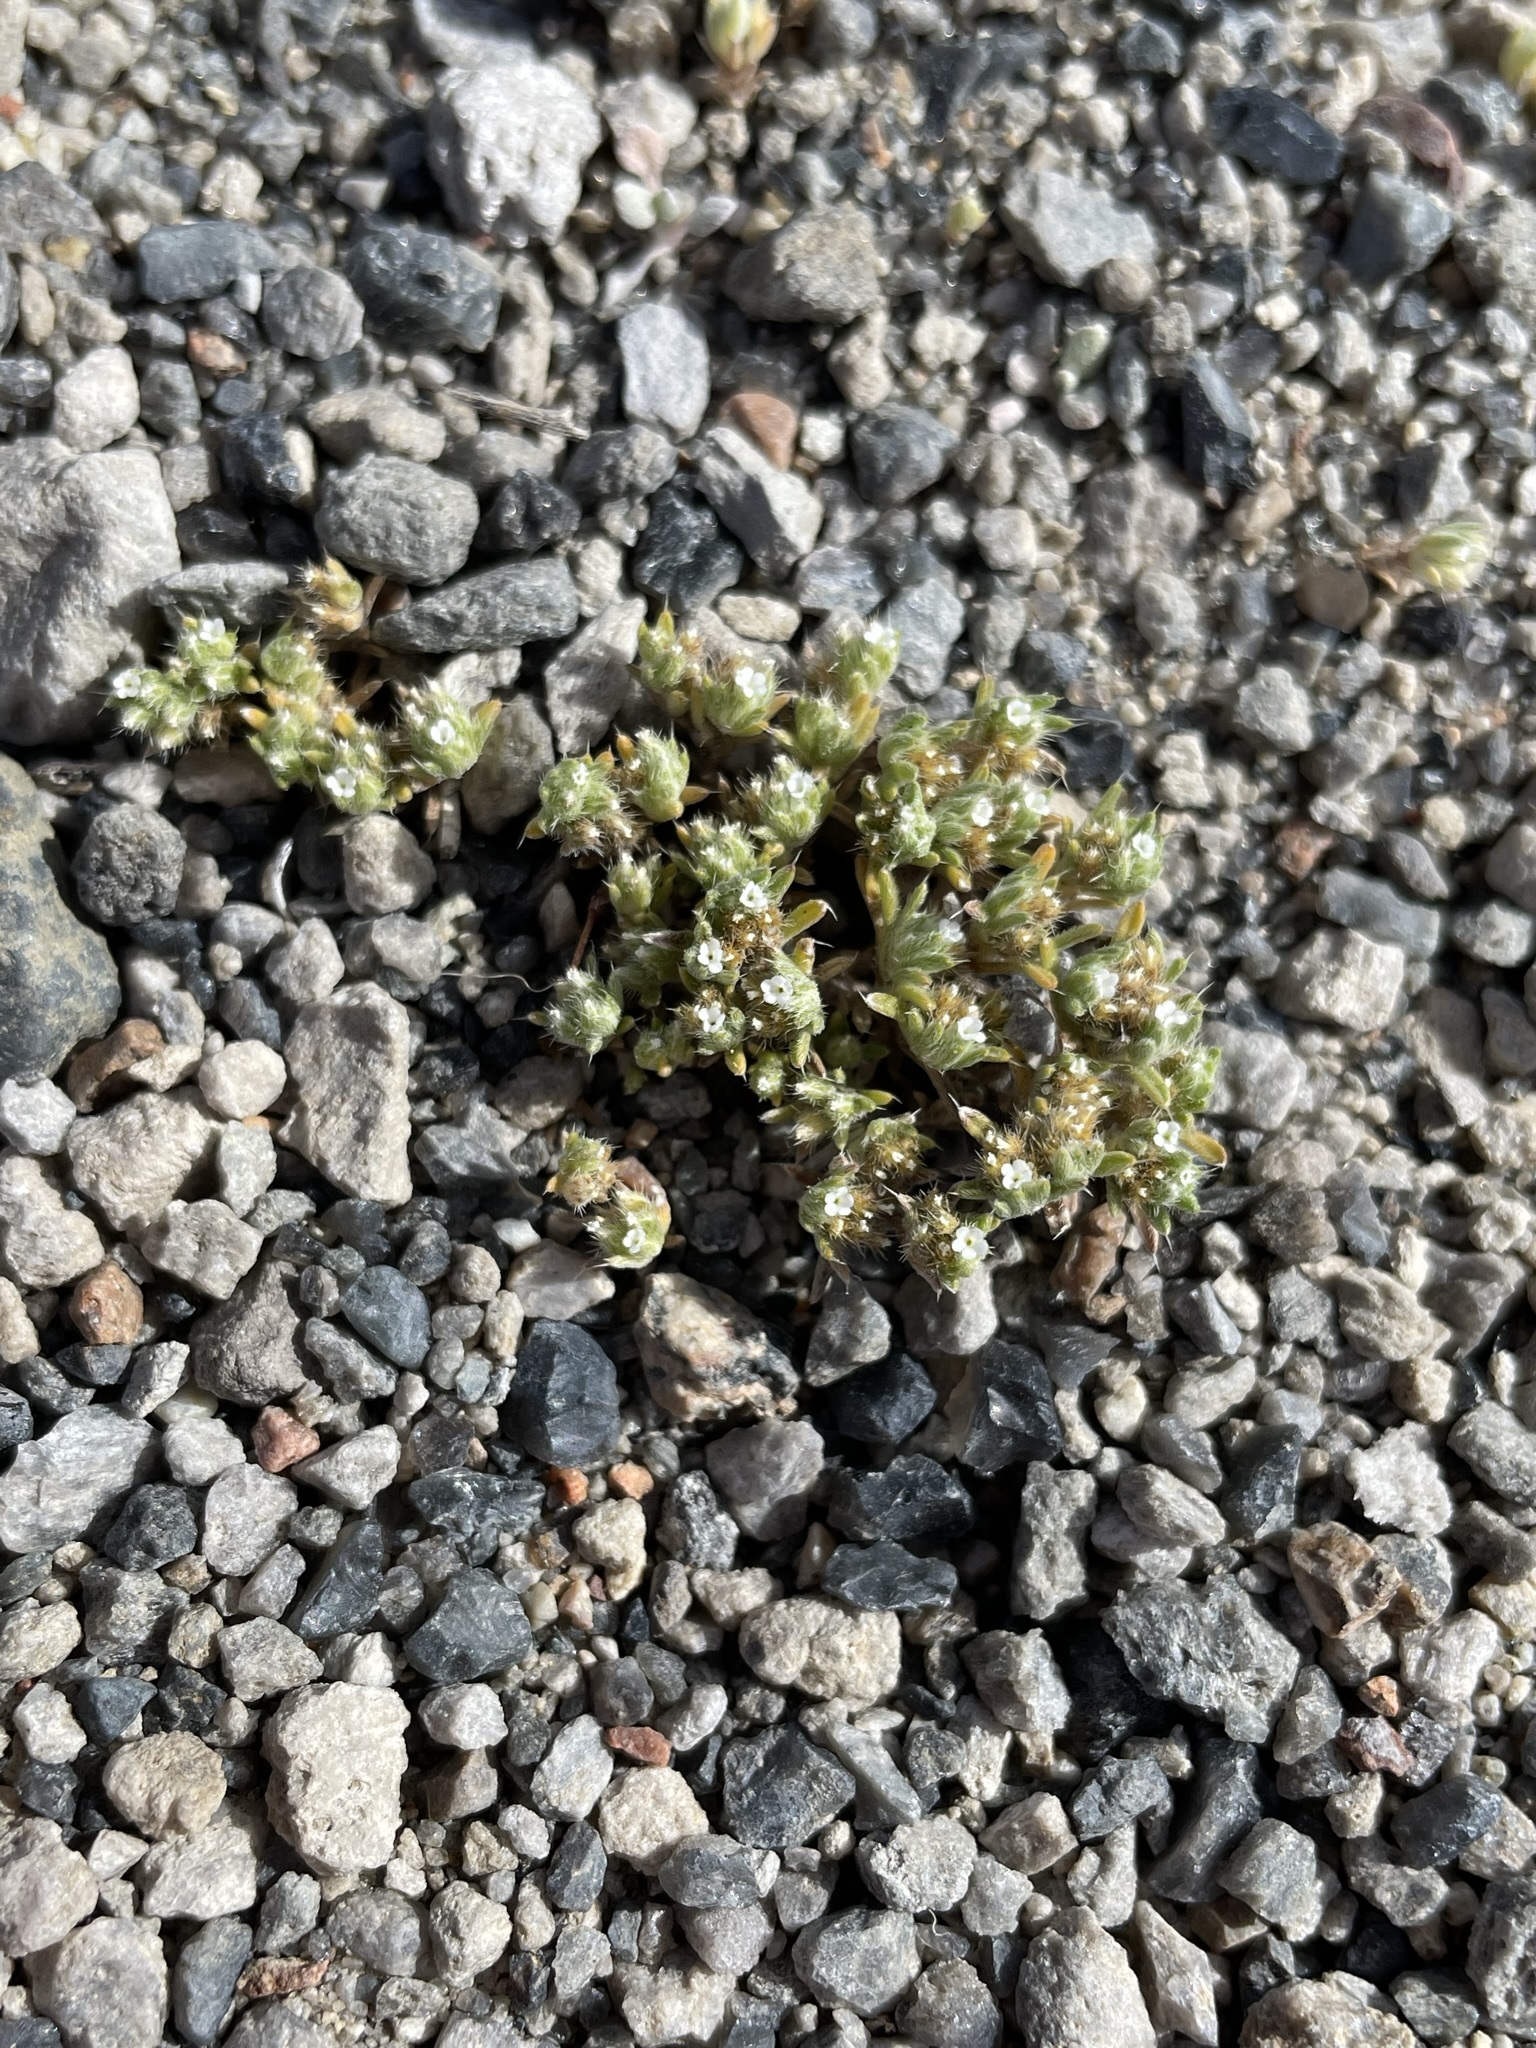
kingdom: Plantae
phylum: Tracheophyta
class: Magnoliopsida
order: Boraginales
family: Boraginaceae
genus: Greeneocharis
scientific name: Greeneocharis circumscissa
